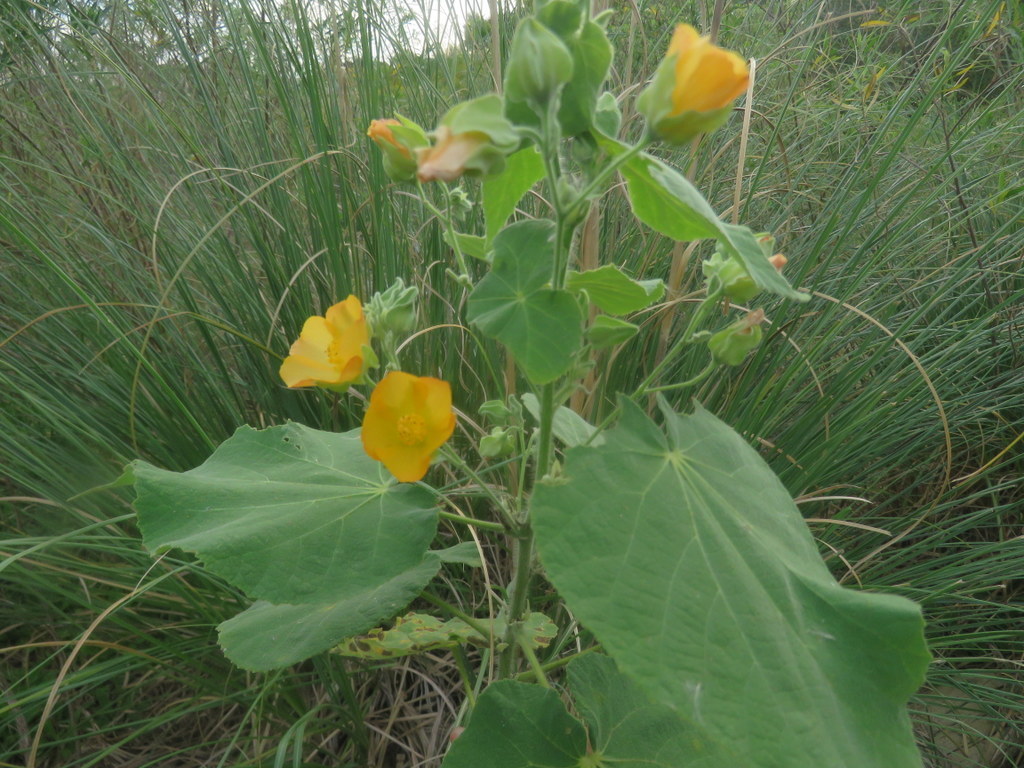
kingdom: Plantae
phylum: Tracheophyta
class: Magnoliopsida
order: Malvales
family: Malvaceae
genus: Abutilon
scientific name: Abutilon grandifolium
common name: Hairy abutilon
